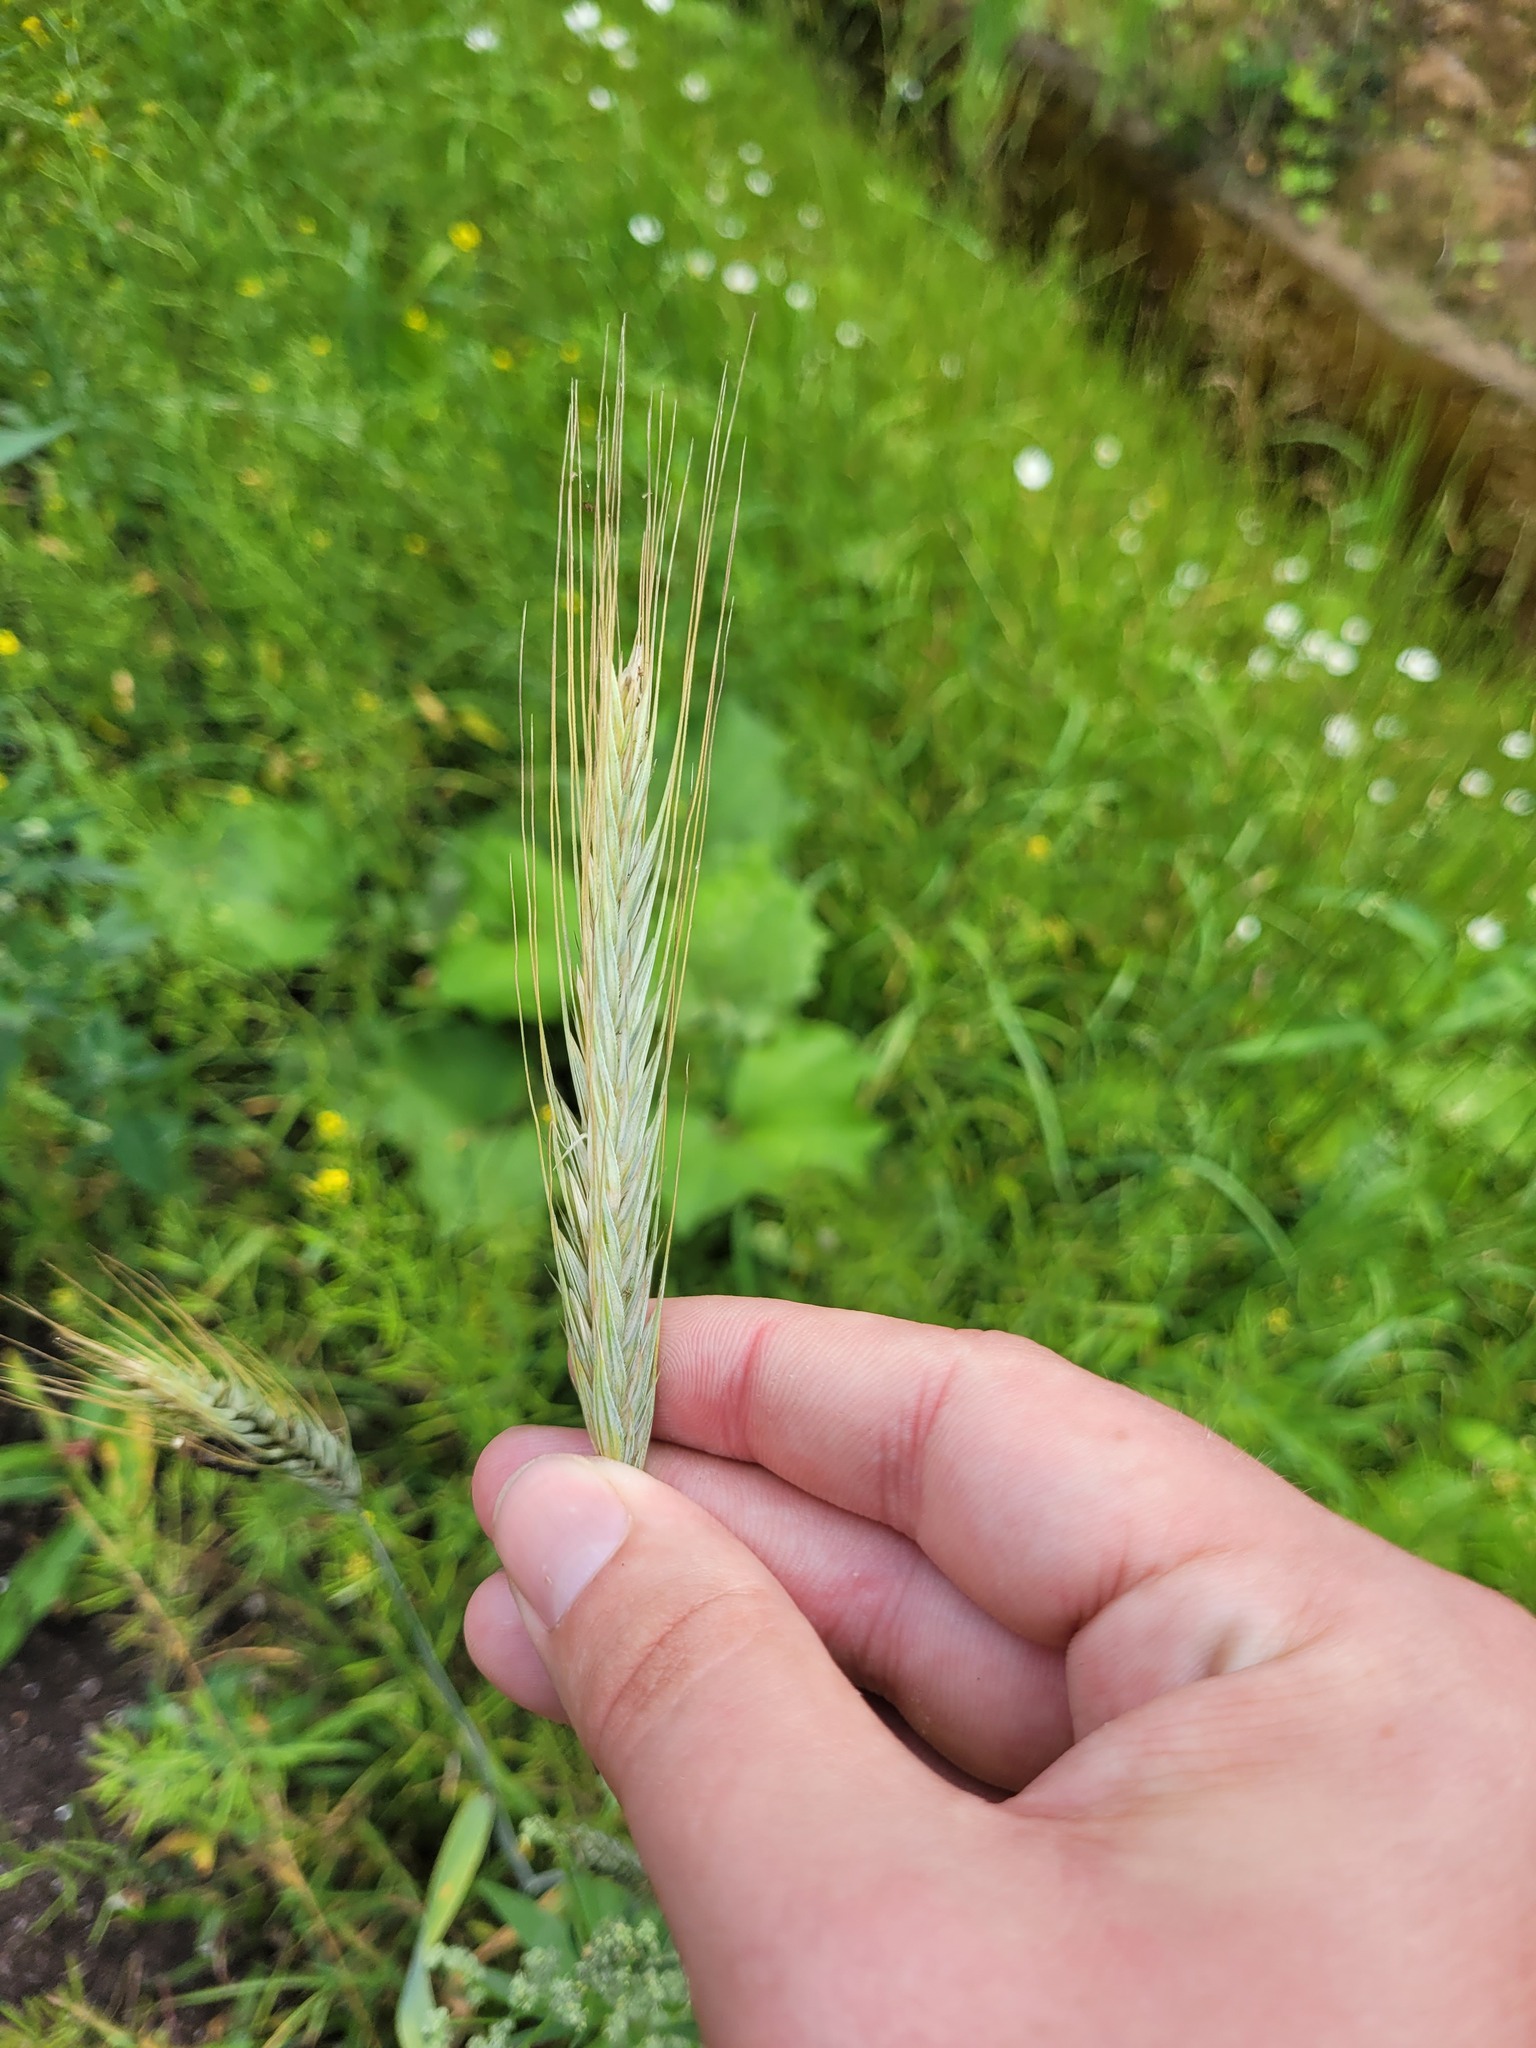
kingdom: Plantae
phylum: Tracheophyta
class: Liliopsida
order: Poales
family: Poaceae
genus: Secale
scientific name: Secale cereale
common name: Rye
